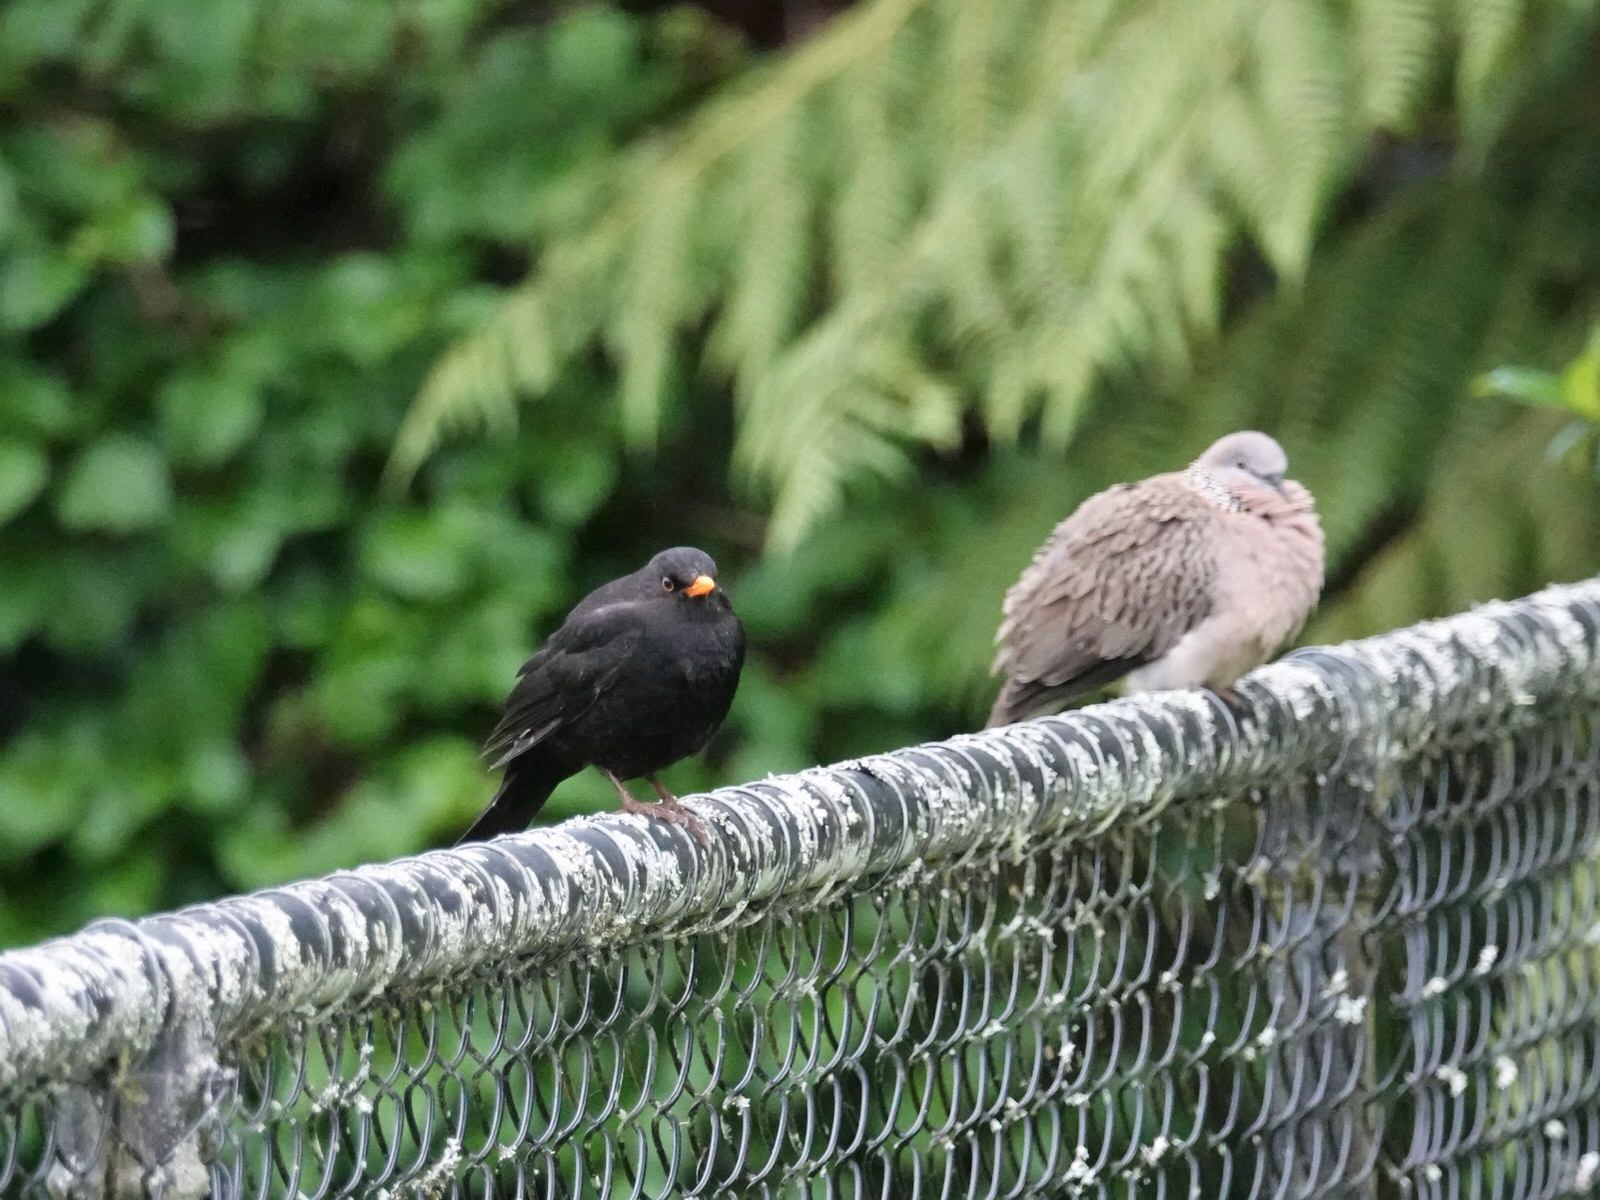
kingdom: Animalia
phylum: Chordata
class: Aves
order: Passeriformes
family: Turdidae
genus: Turdus
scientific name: Turdus merula
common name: Common blackbird
